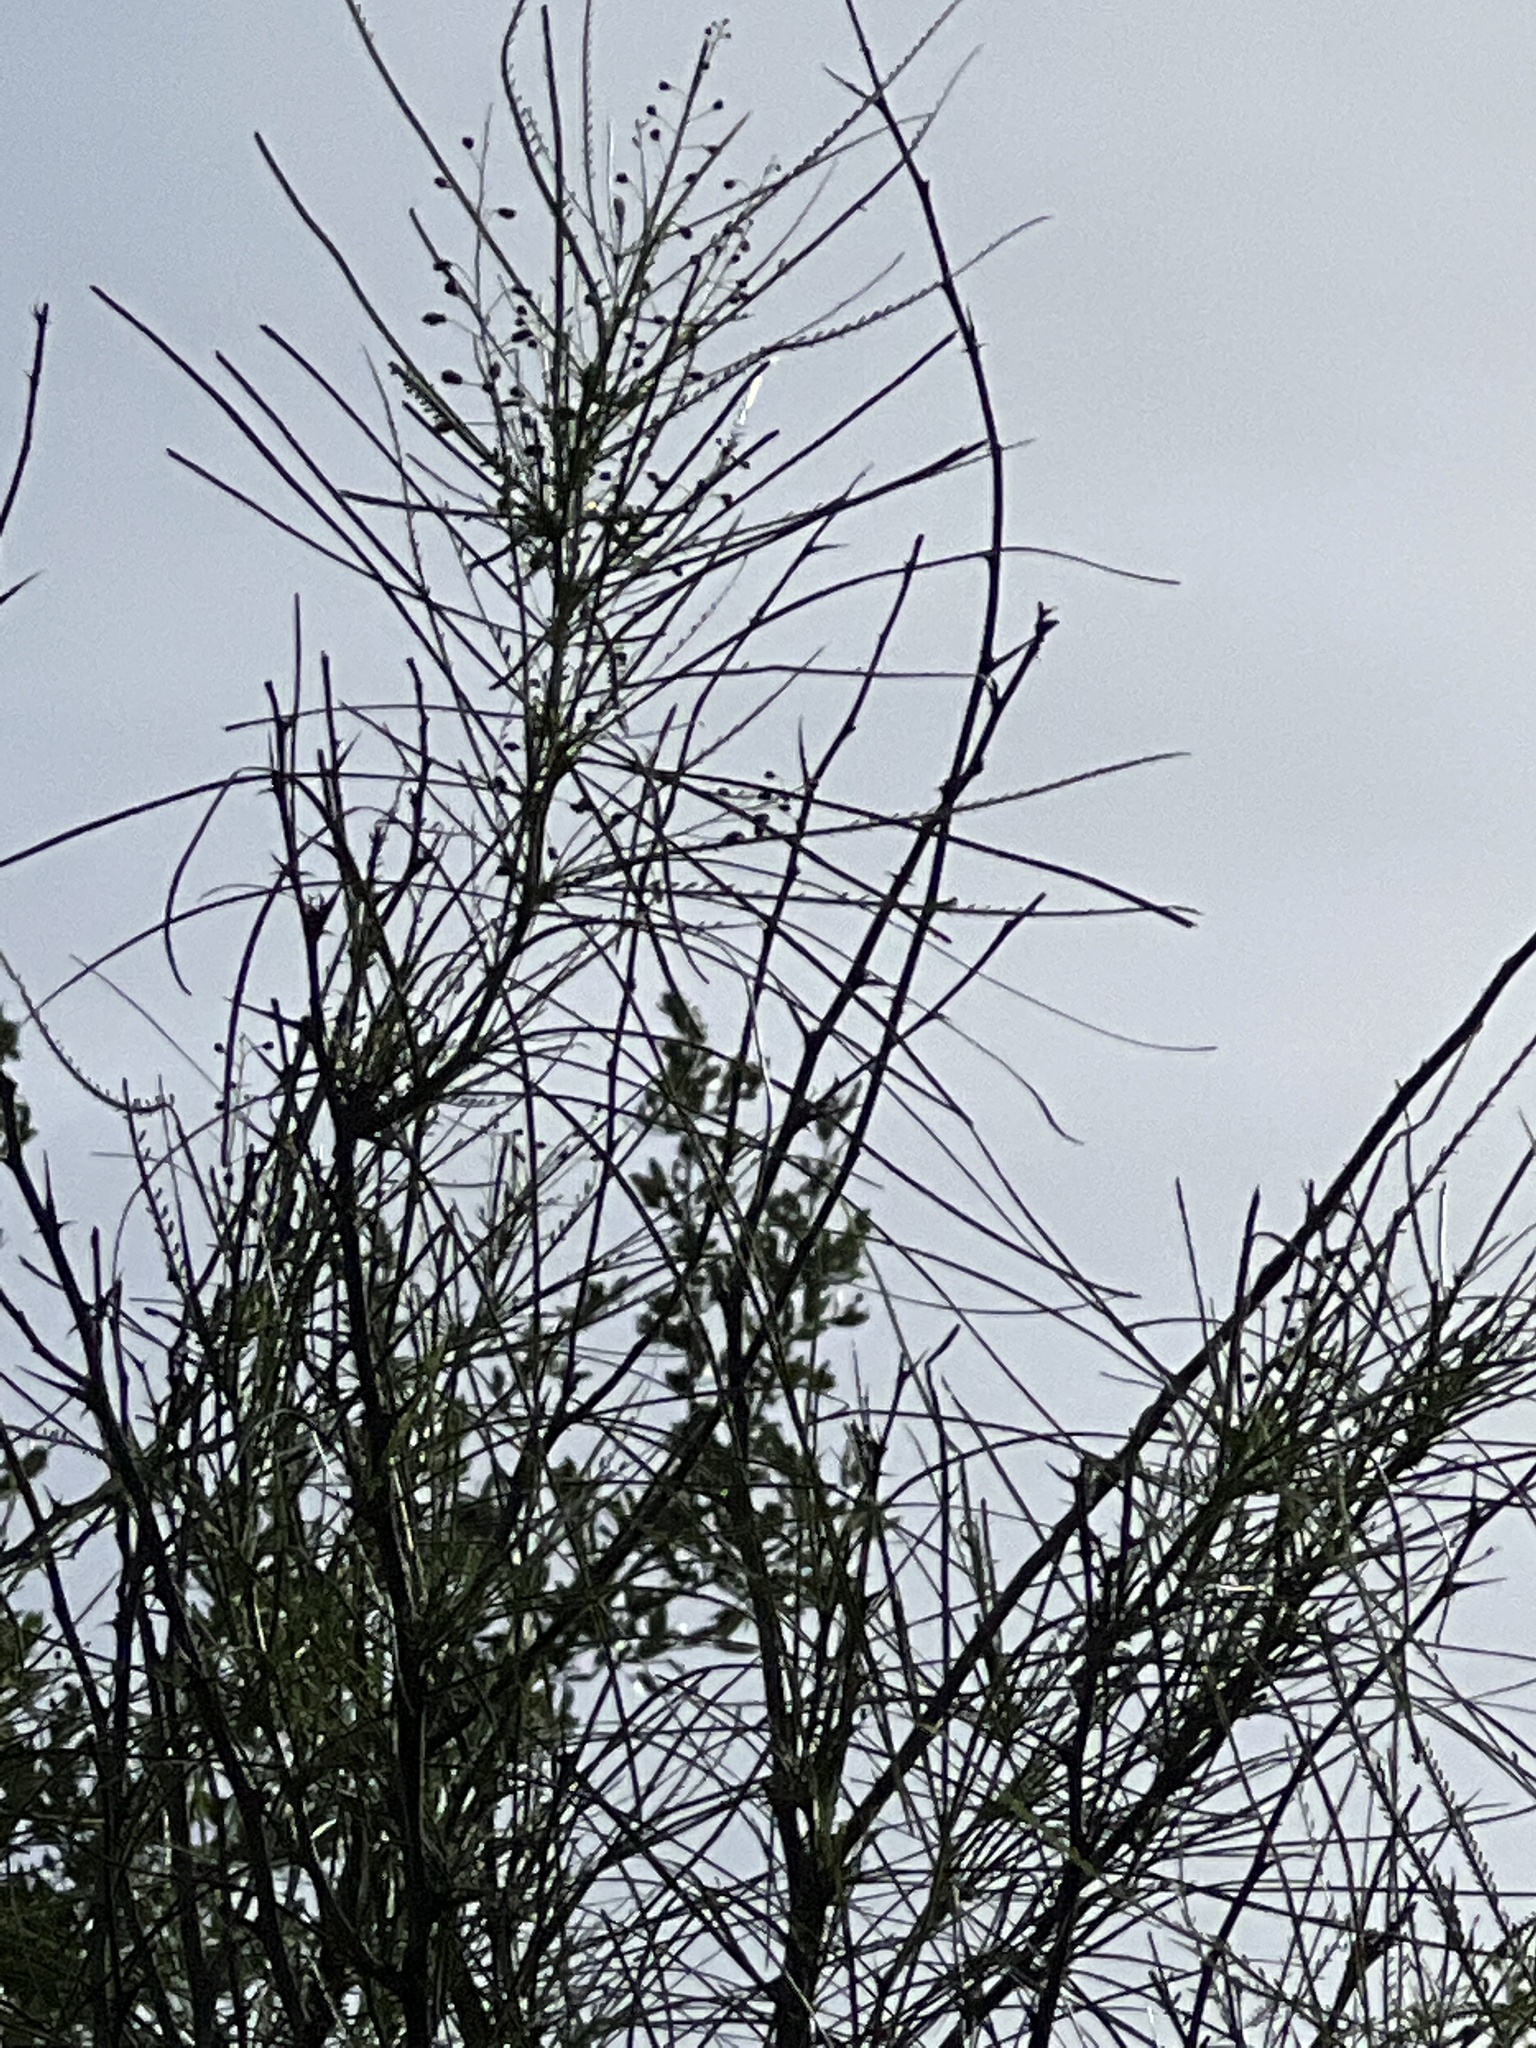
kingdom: Plantae
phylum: Tracheophyta
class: Magnoliopsida
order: Fabales
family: Fabaceae
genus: Parkinsonia
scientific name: Parkinsonia aculeata
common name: Jerusalem thorn
